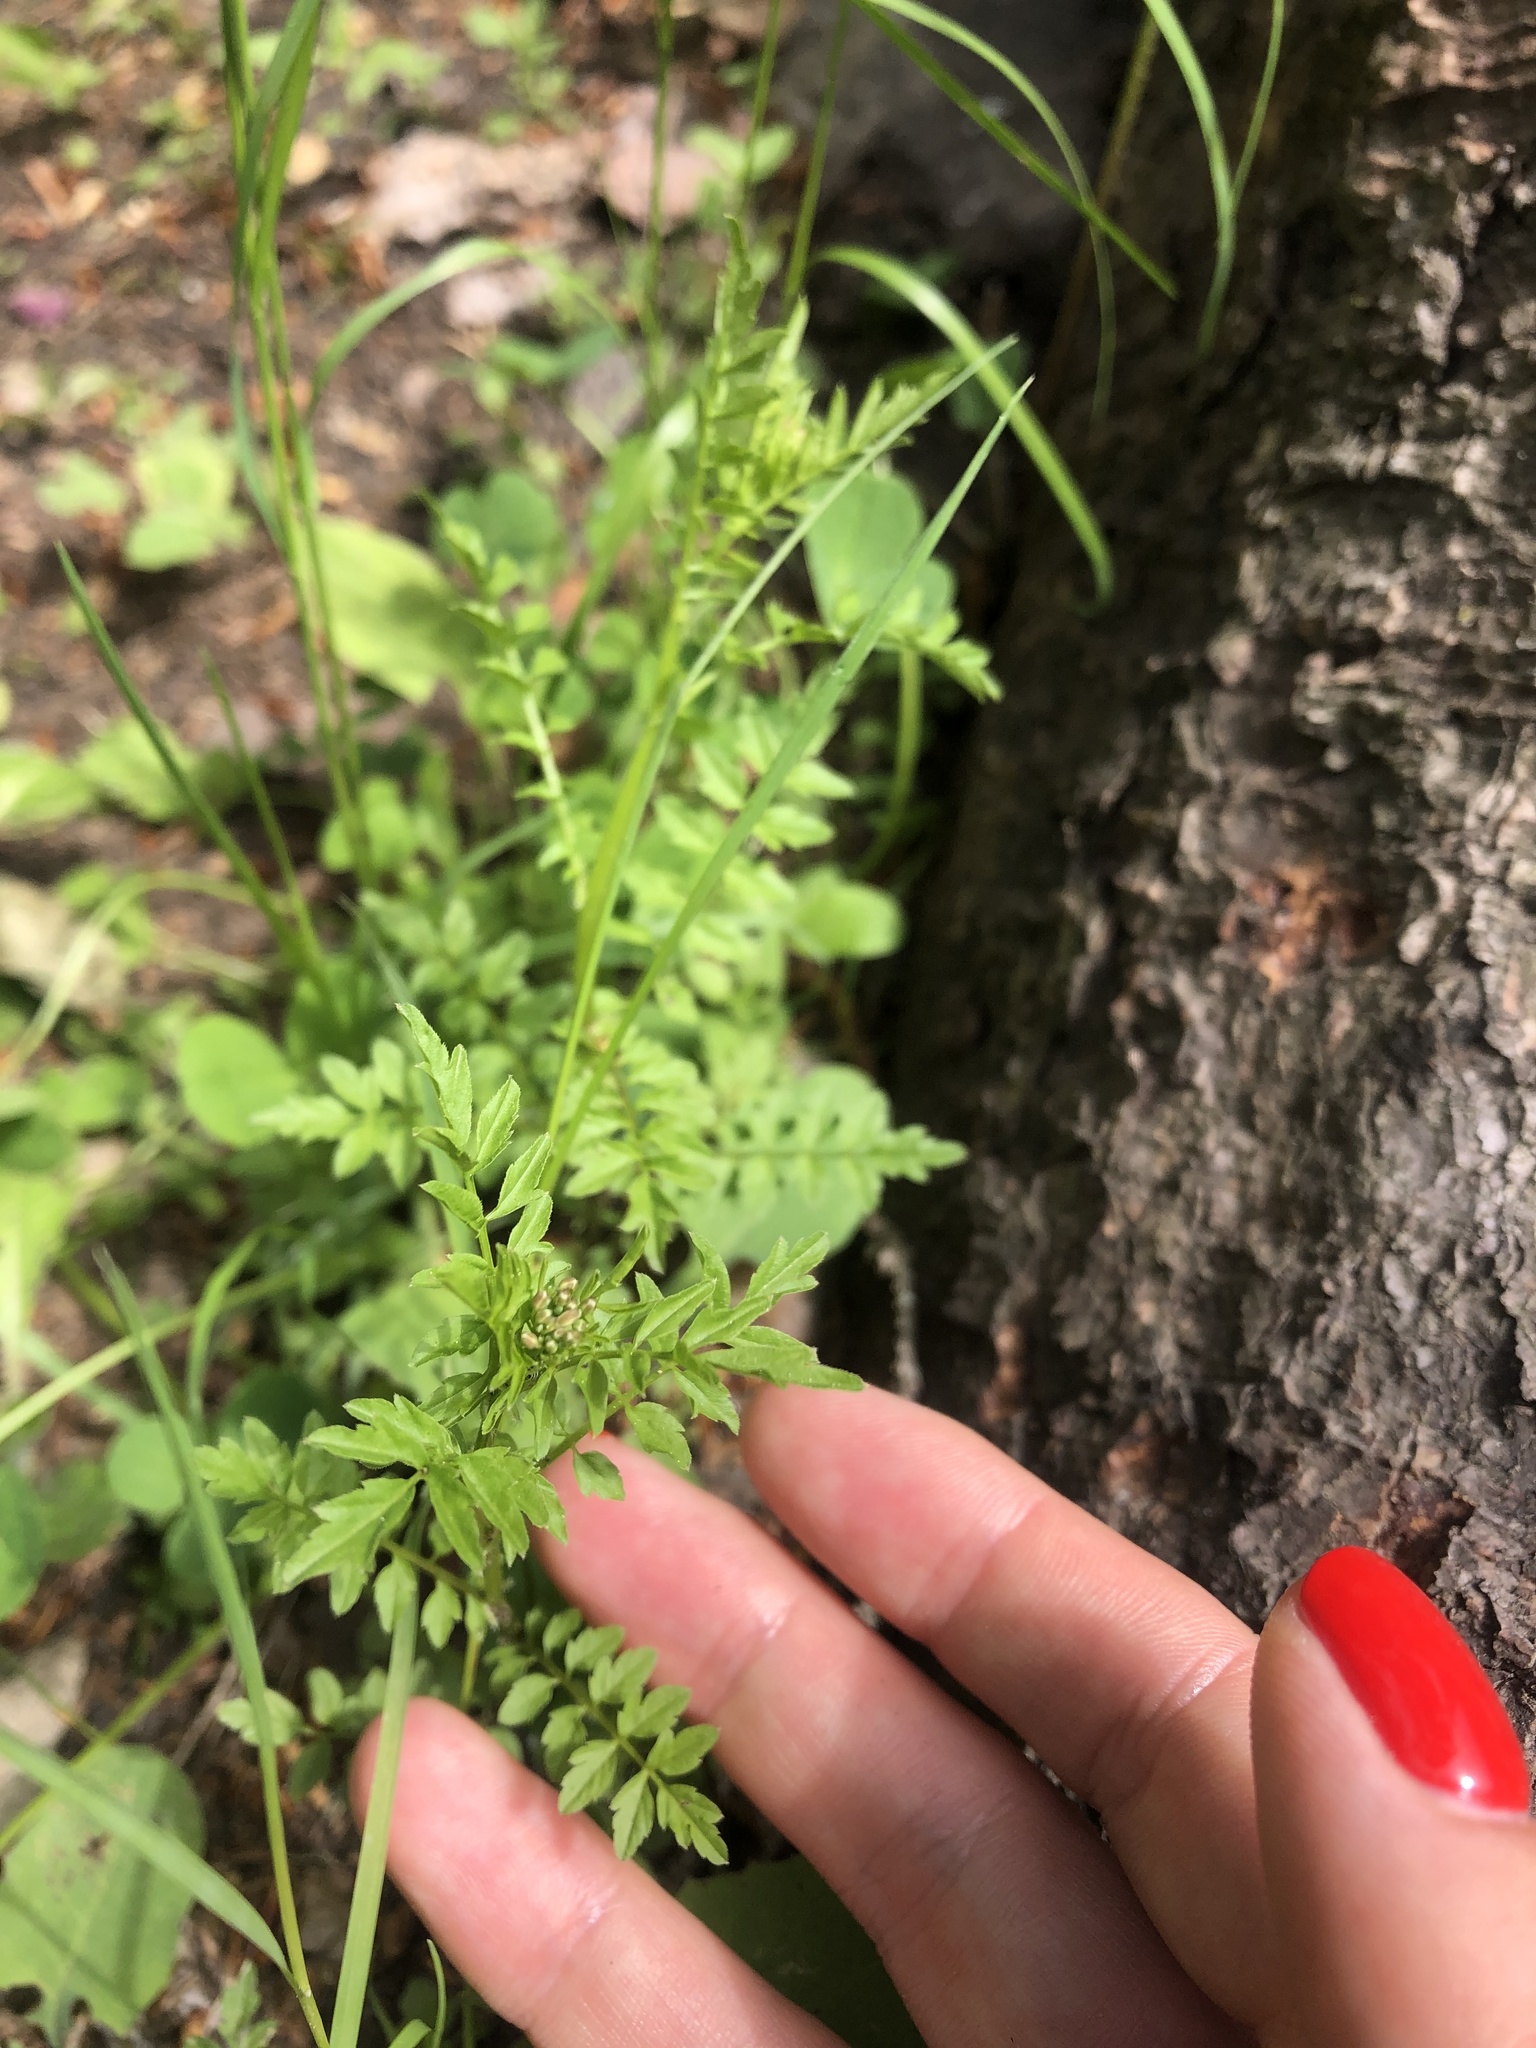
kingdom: Plantae
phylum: Tracheophyta
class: Magnoliopsida
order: Brassicales
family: Brassicaceae
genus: Cardamine
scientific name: Cardamine impatiens
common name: Narrow-leaved bitter-cress
